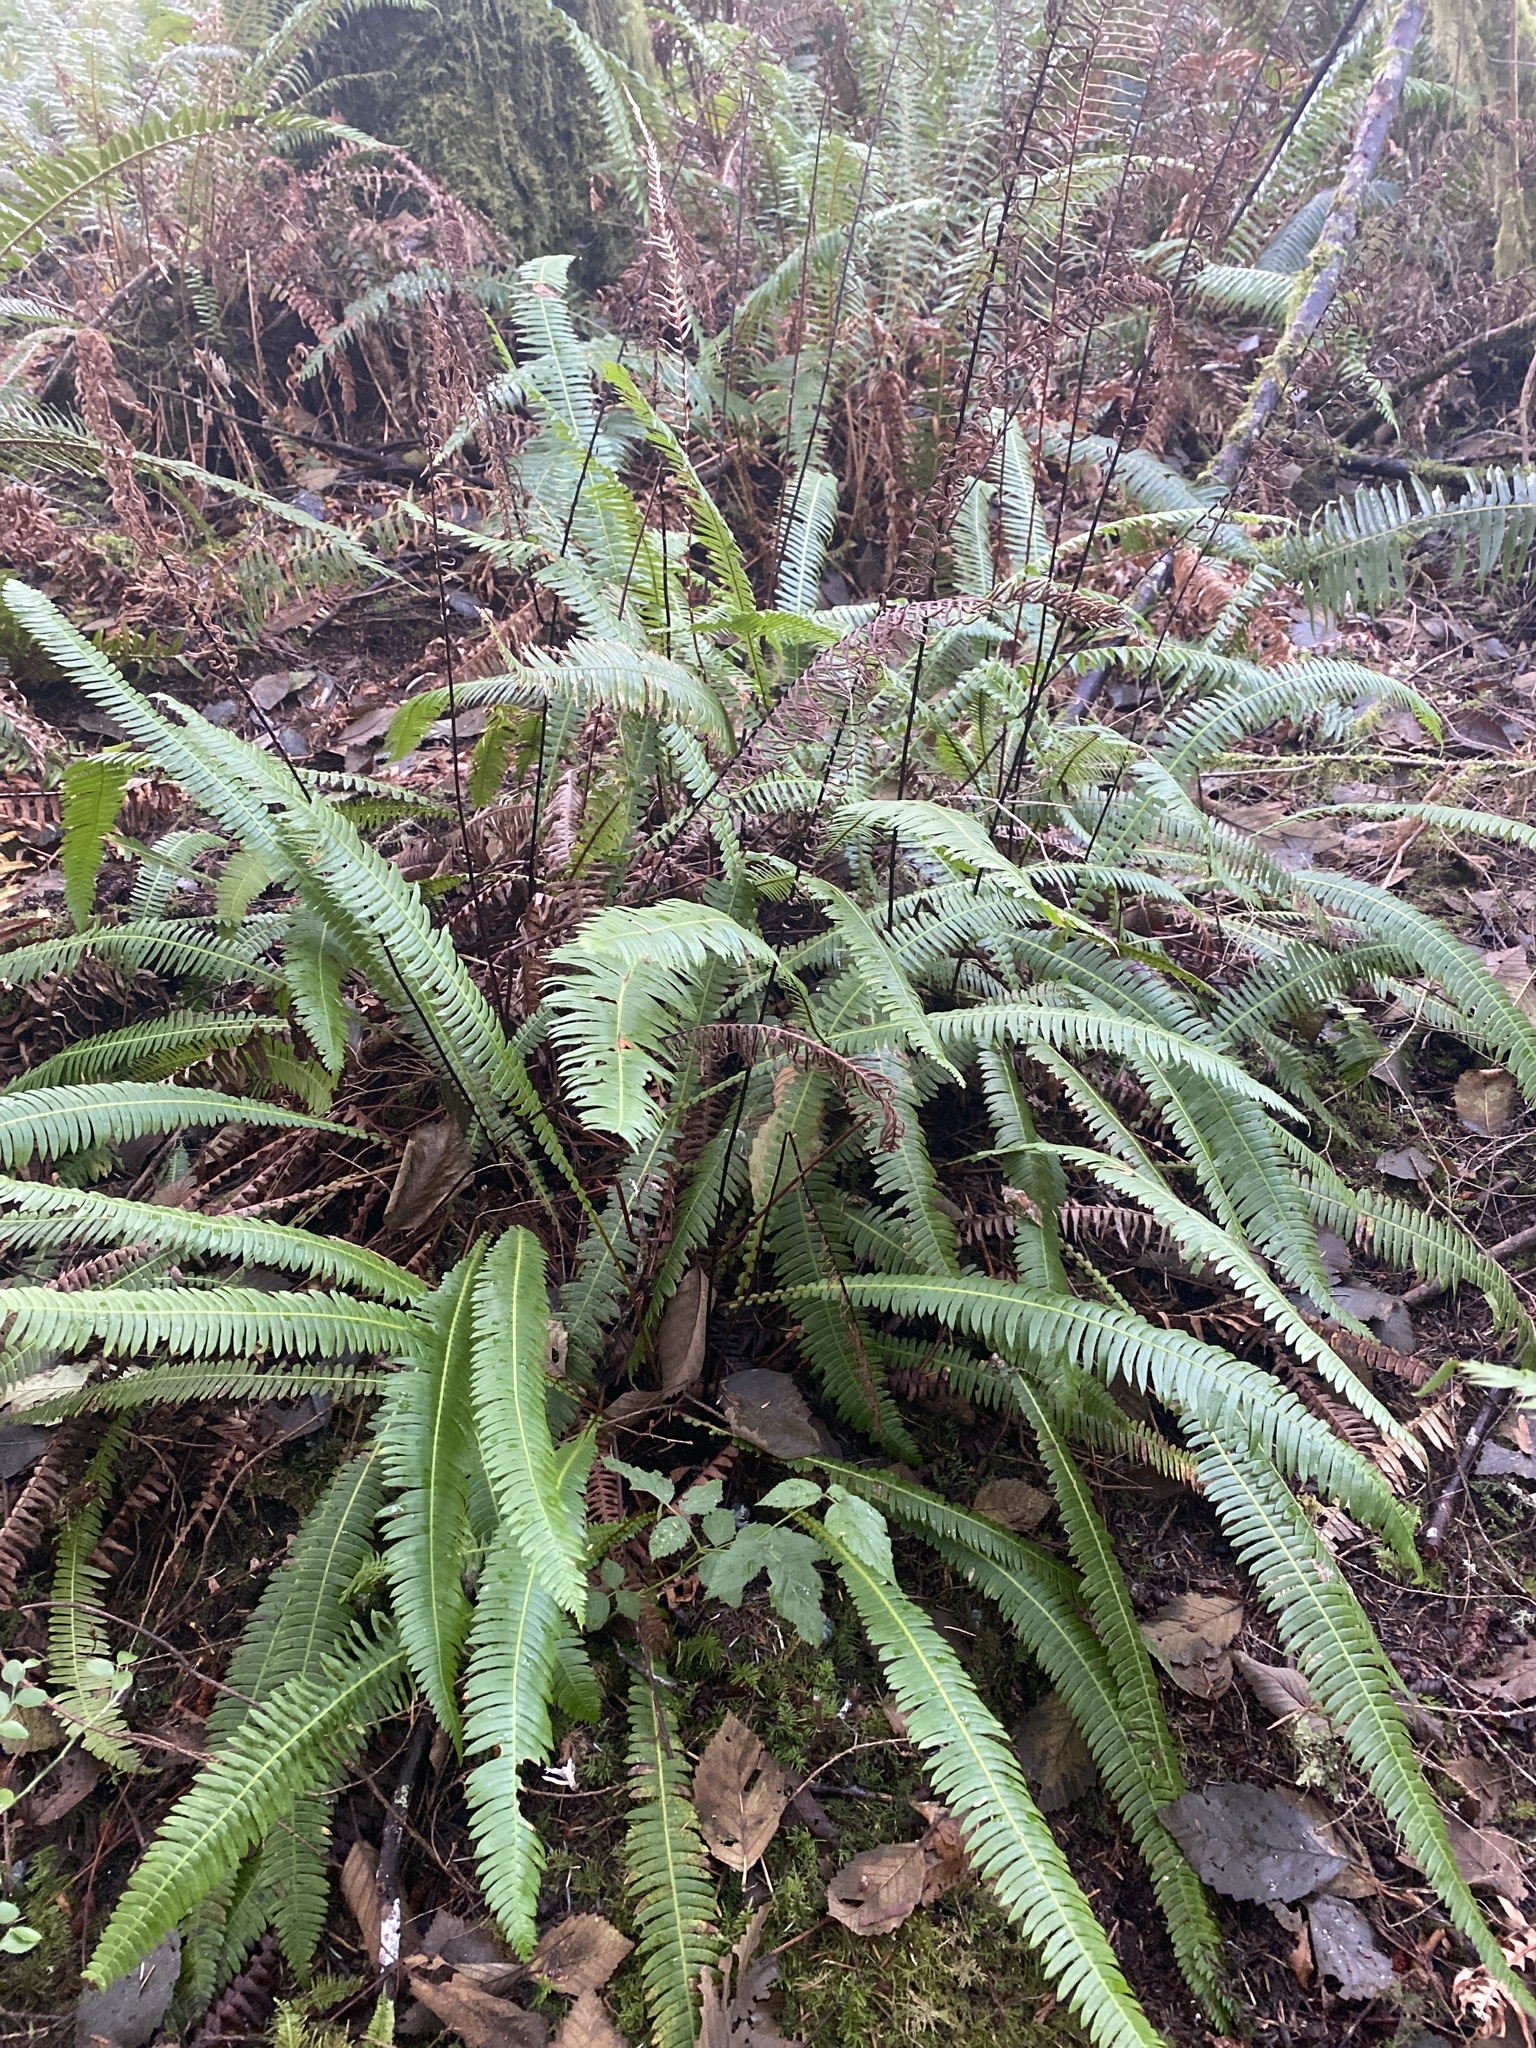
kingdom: Plantae
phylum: Tracheophyta
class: Polypodiopsida
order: Polypodiales
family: Blechnaceae
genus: Struthiopteris
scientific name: Struthiopteris spicant
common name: Deer fern
